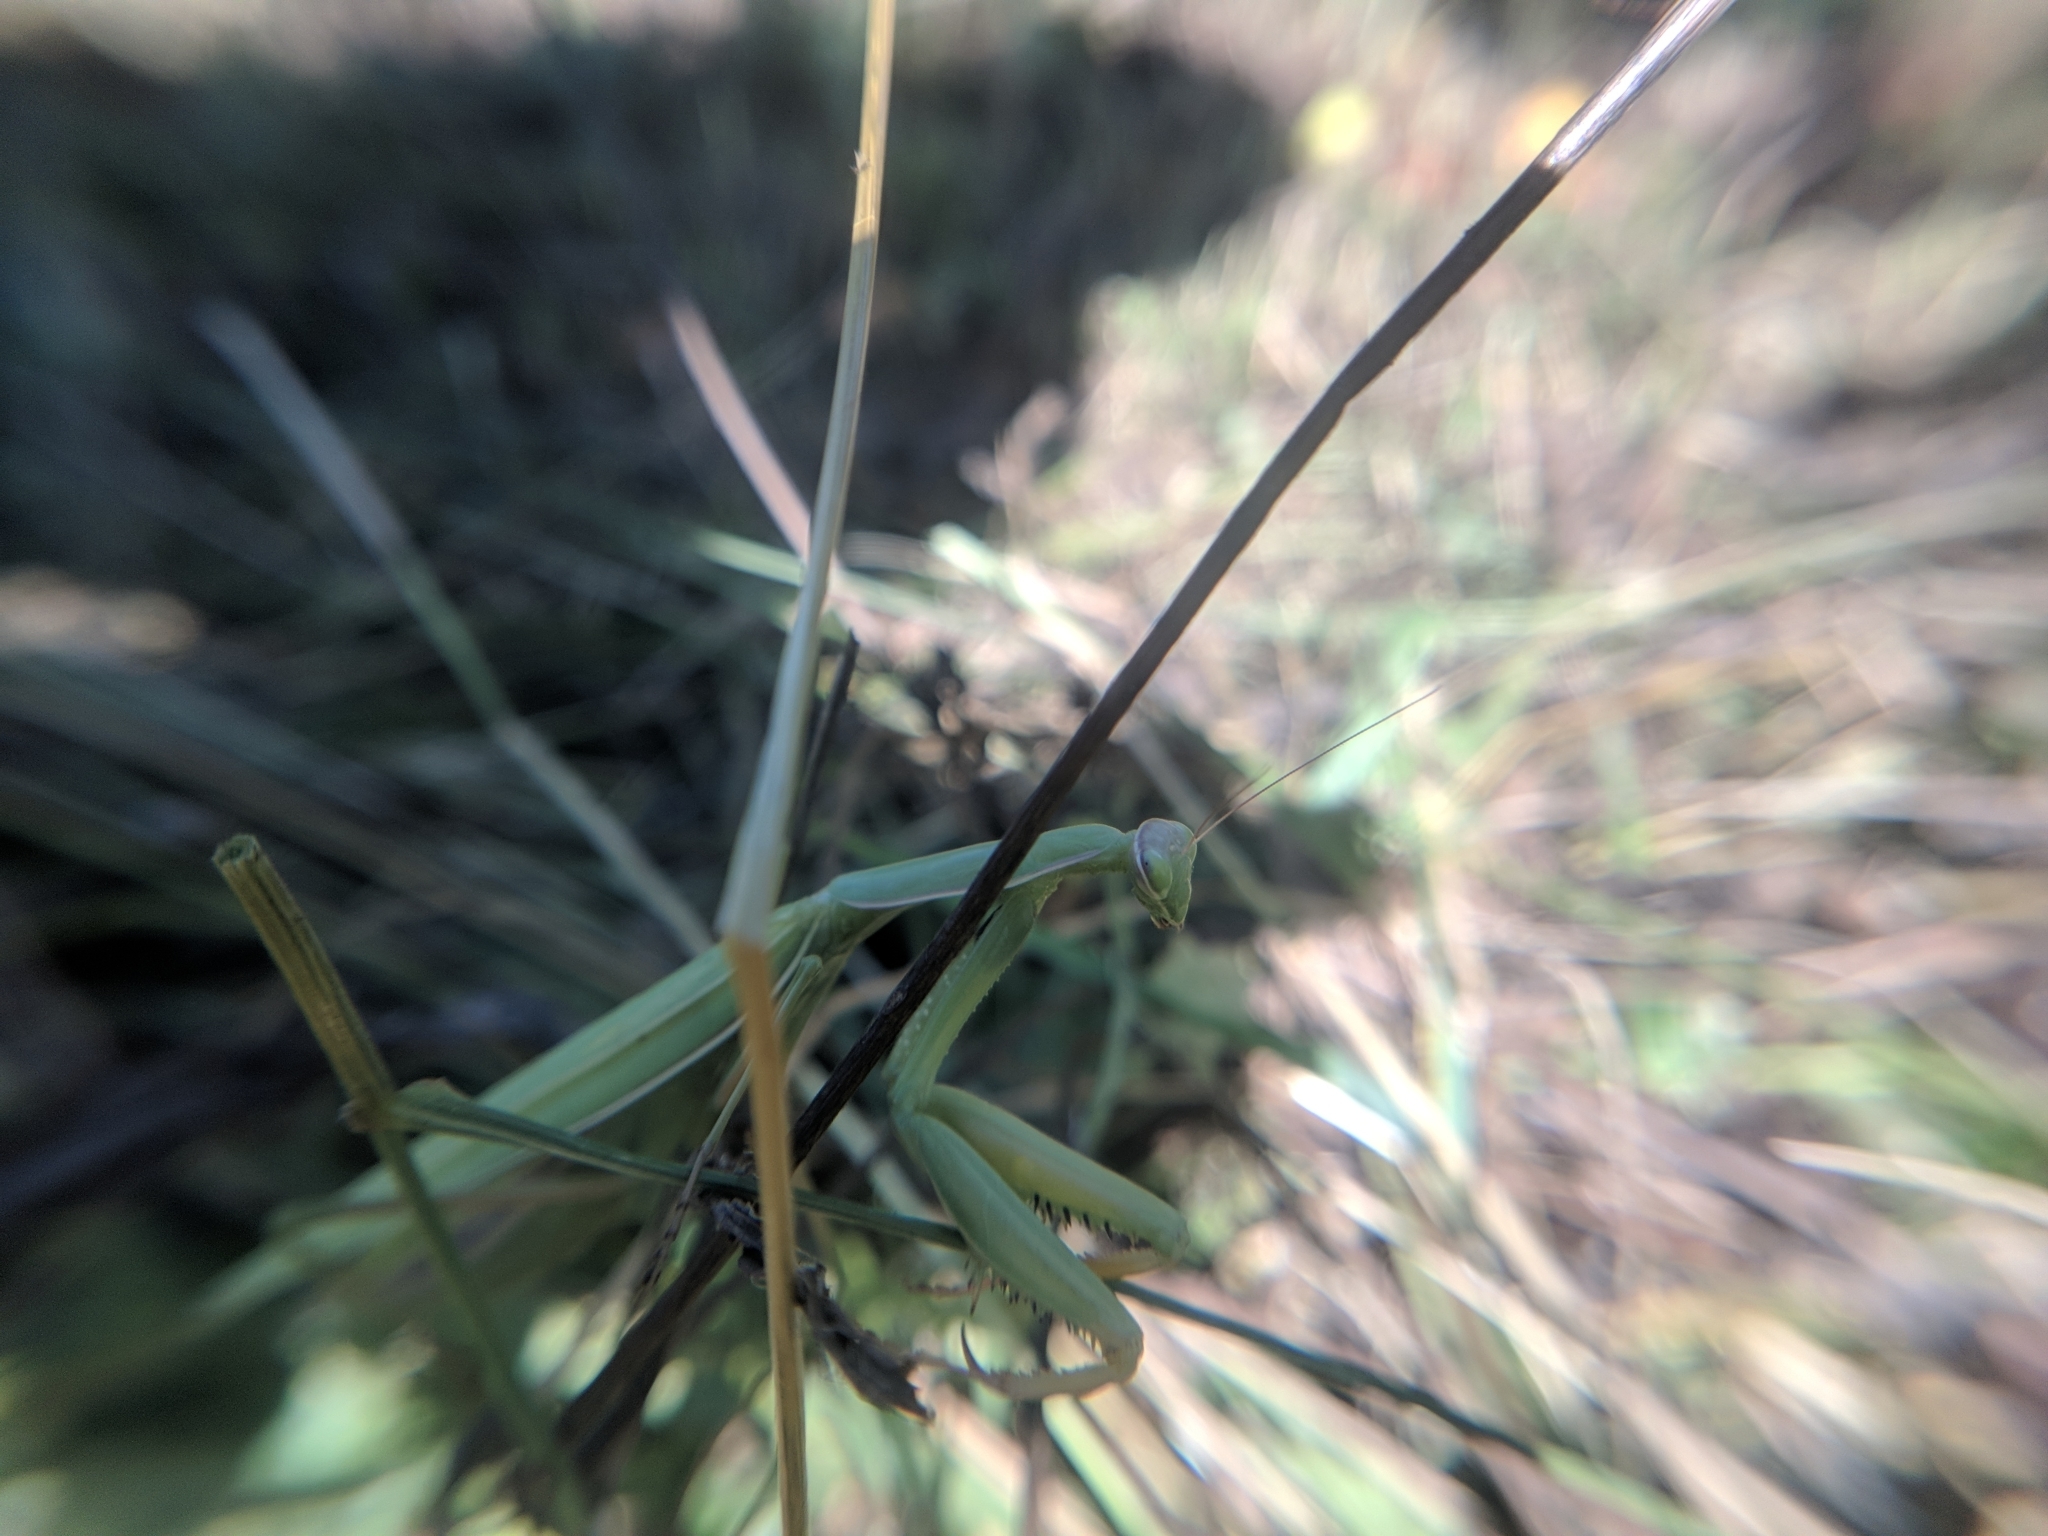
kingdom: Animalia
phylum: Arthropoda
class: Insecta
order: Mantodea
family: Mantidae
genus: Mantis
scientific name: Mantis religiosa
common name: Praying mantis
